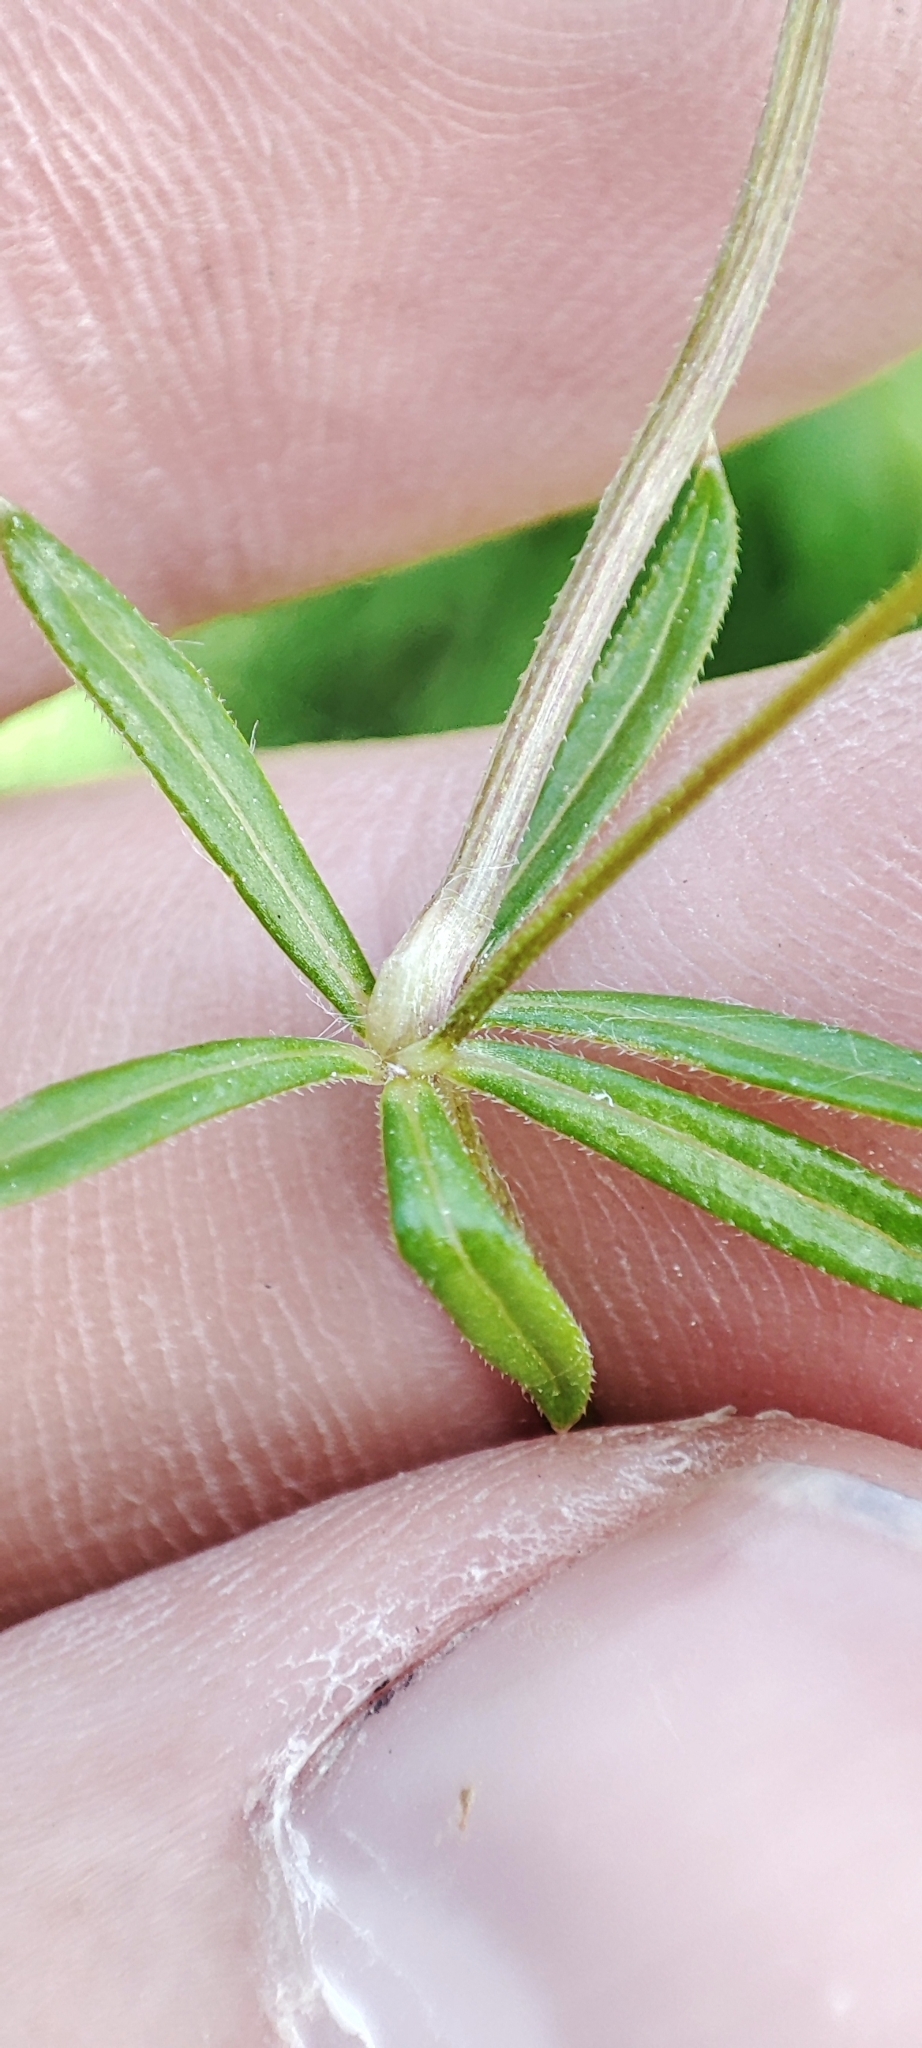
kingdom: Plantae
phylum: Tracheophyta
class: Magnoliopsida
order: Gentianales
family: Rubiaceae
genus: Galium
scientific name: Galium uliginosum
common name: Fen bedstraw
